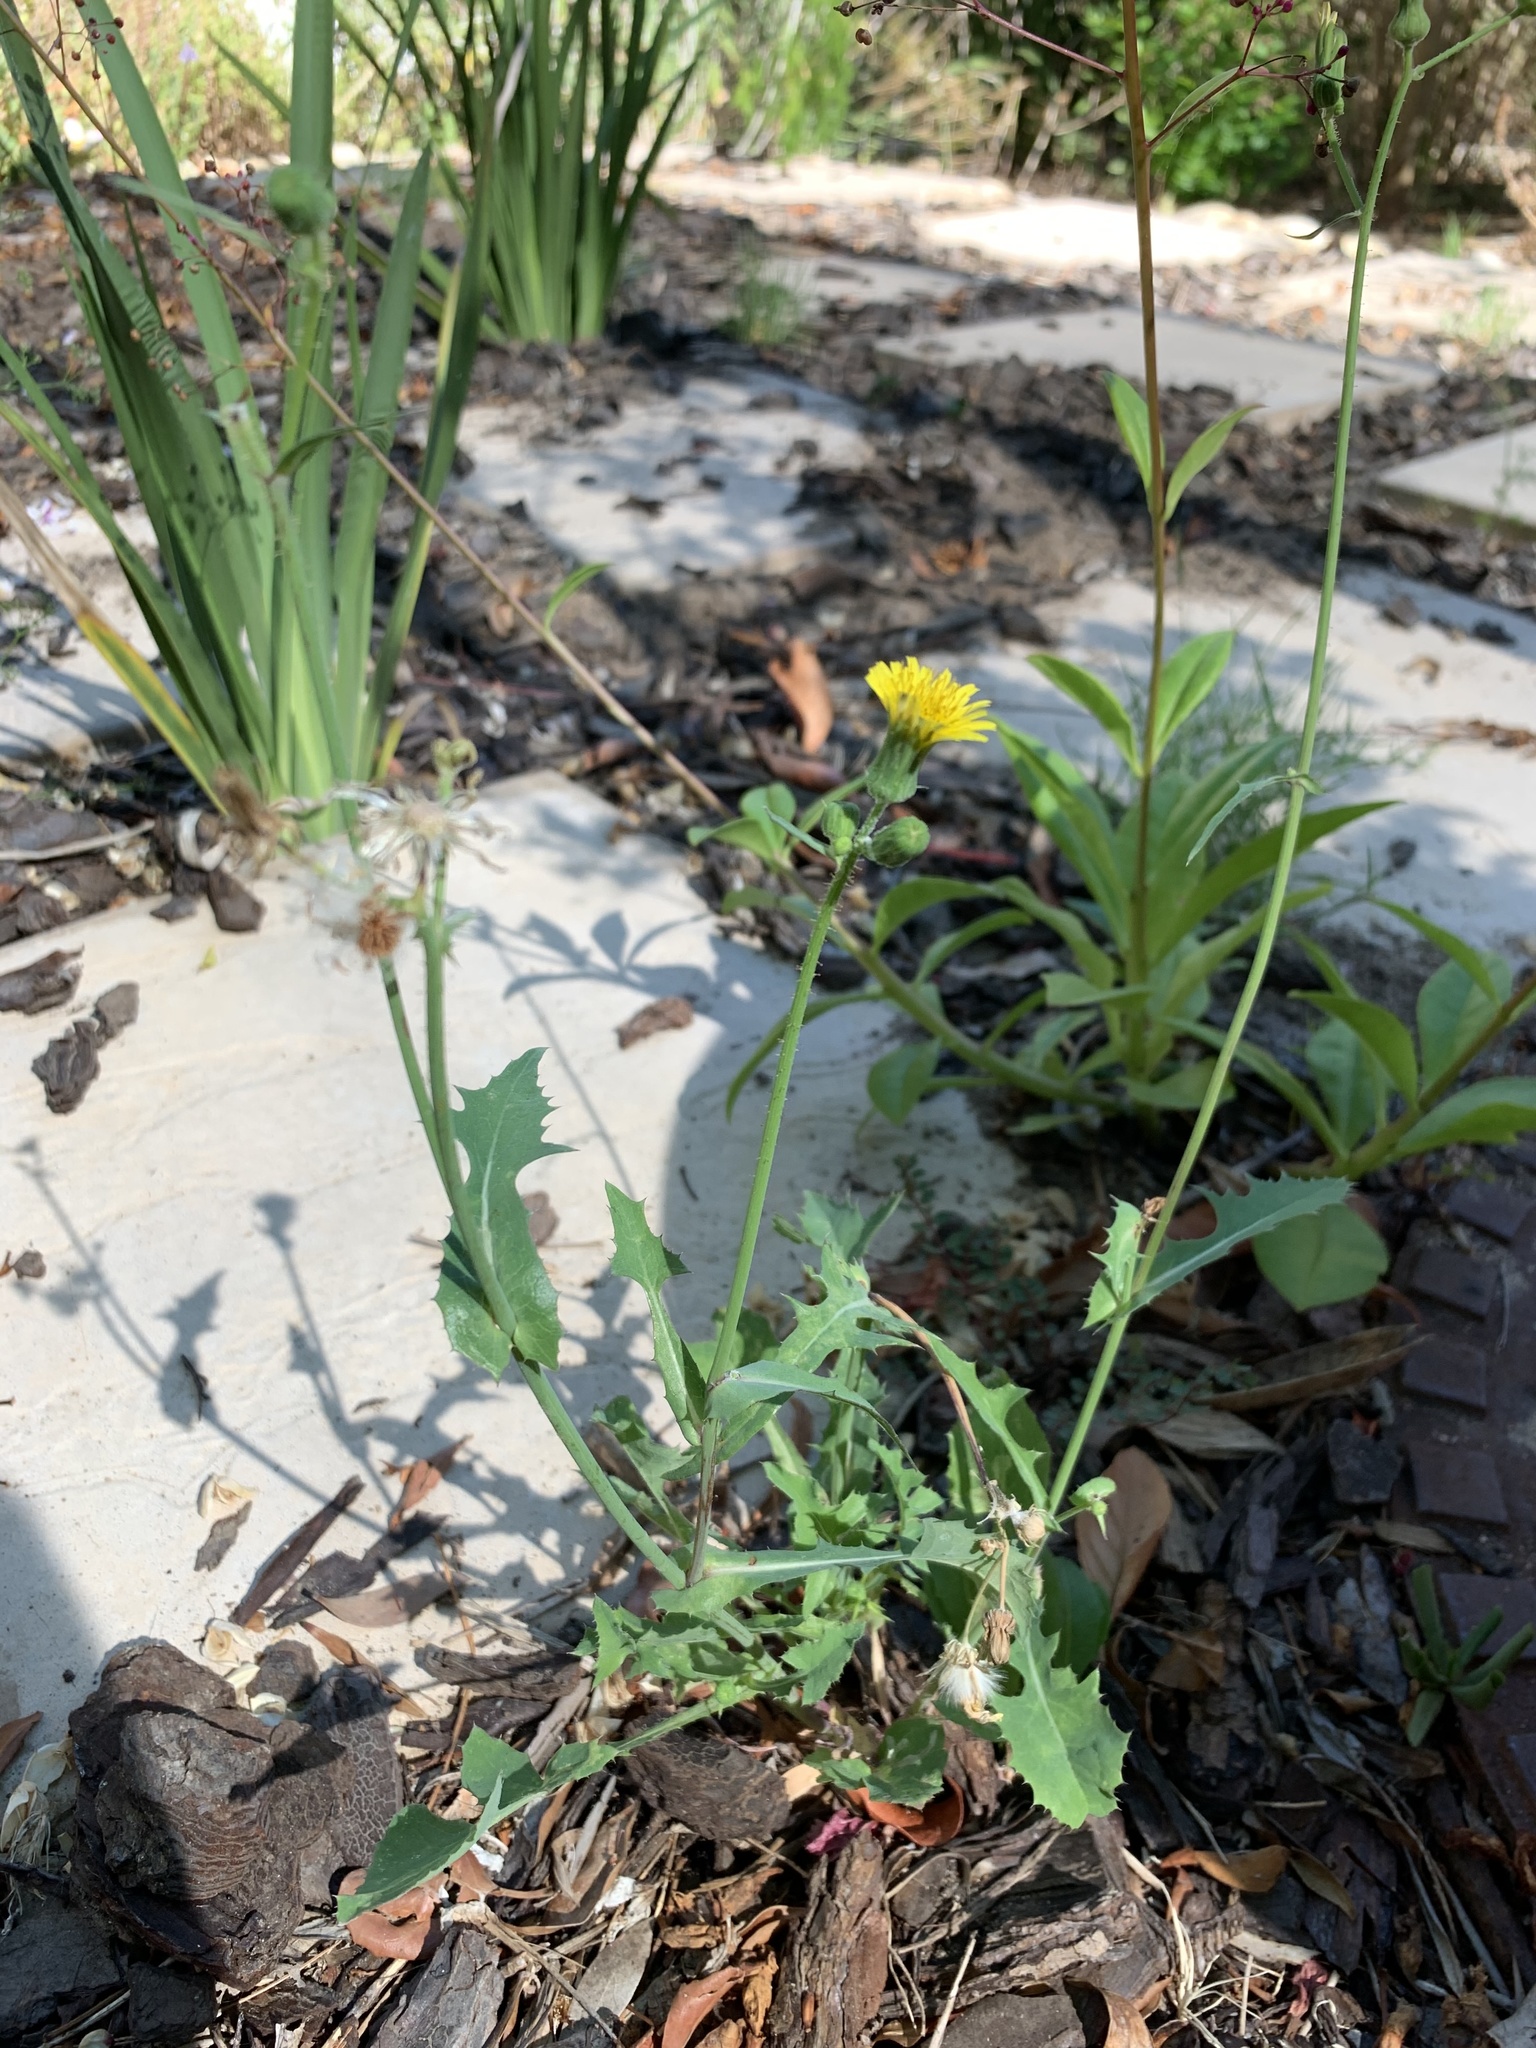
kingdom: Plantae
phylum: Tracheophyta
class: Magnoliopsida
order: Asterales
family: Asteraceae
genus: Sonchus
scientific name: Sonchus oleraceus
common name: Common sowthistle
